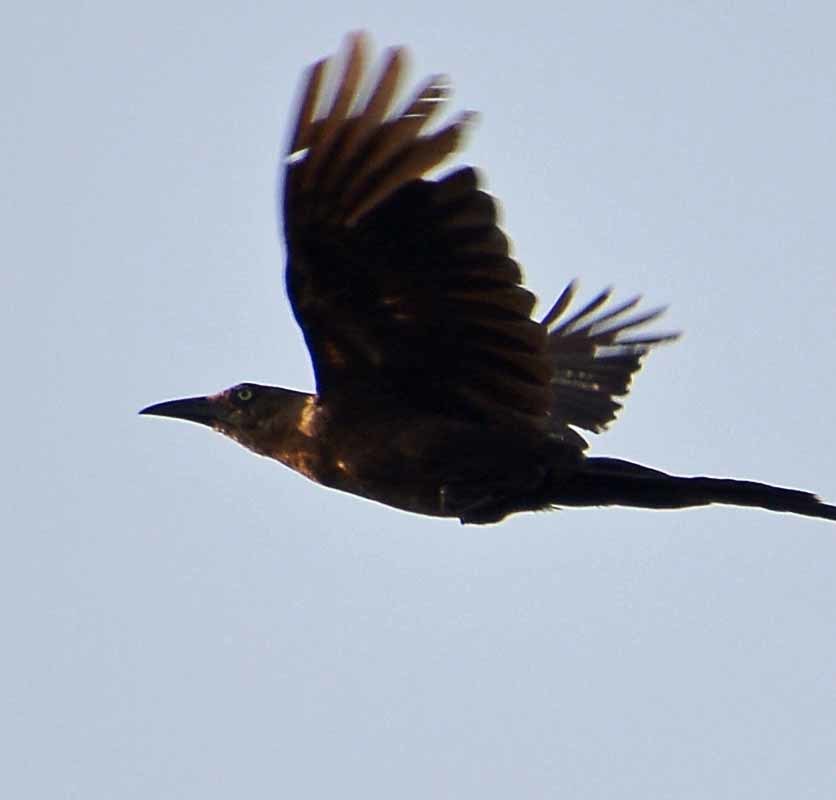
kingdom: Animalia
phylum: Chordata
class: Aves
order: Passeriformes
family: Icteridae
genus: Quiscalus
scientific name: Quiscalus mexicanus
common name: Great-tailed grackle
